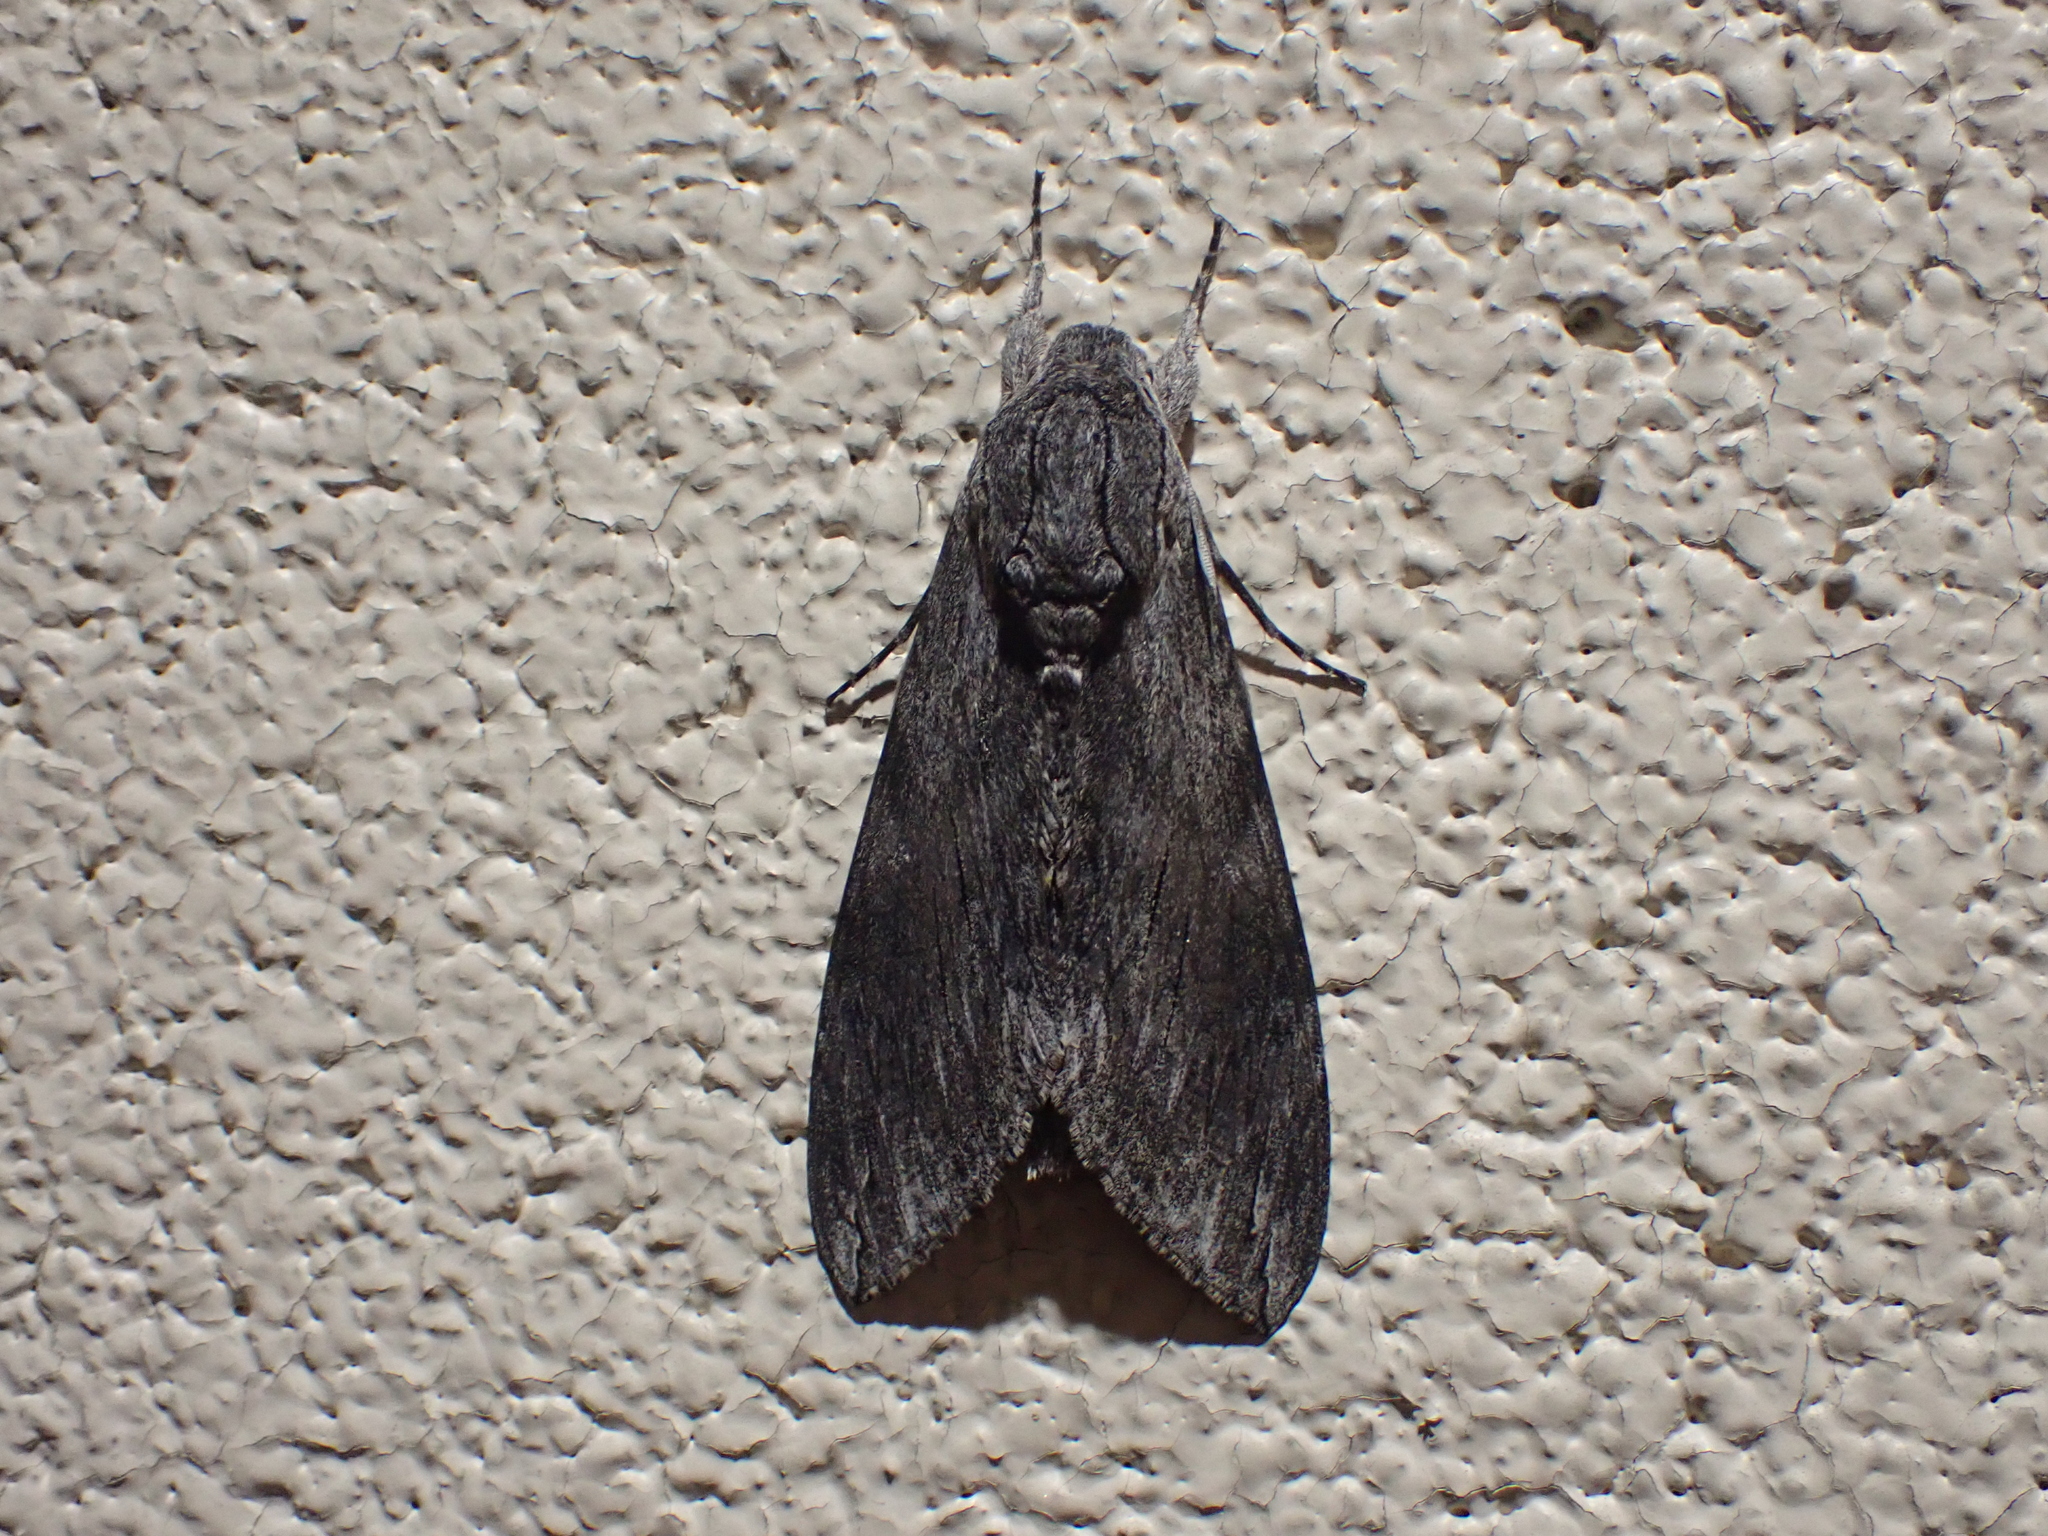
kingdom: Animalia
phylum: Arthropoda
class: Insecta
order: Lepidoptera
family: Sphingidae
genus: Agrius
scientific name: Agrius convolvuli
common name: Convolvulus hawkmoth
